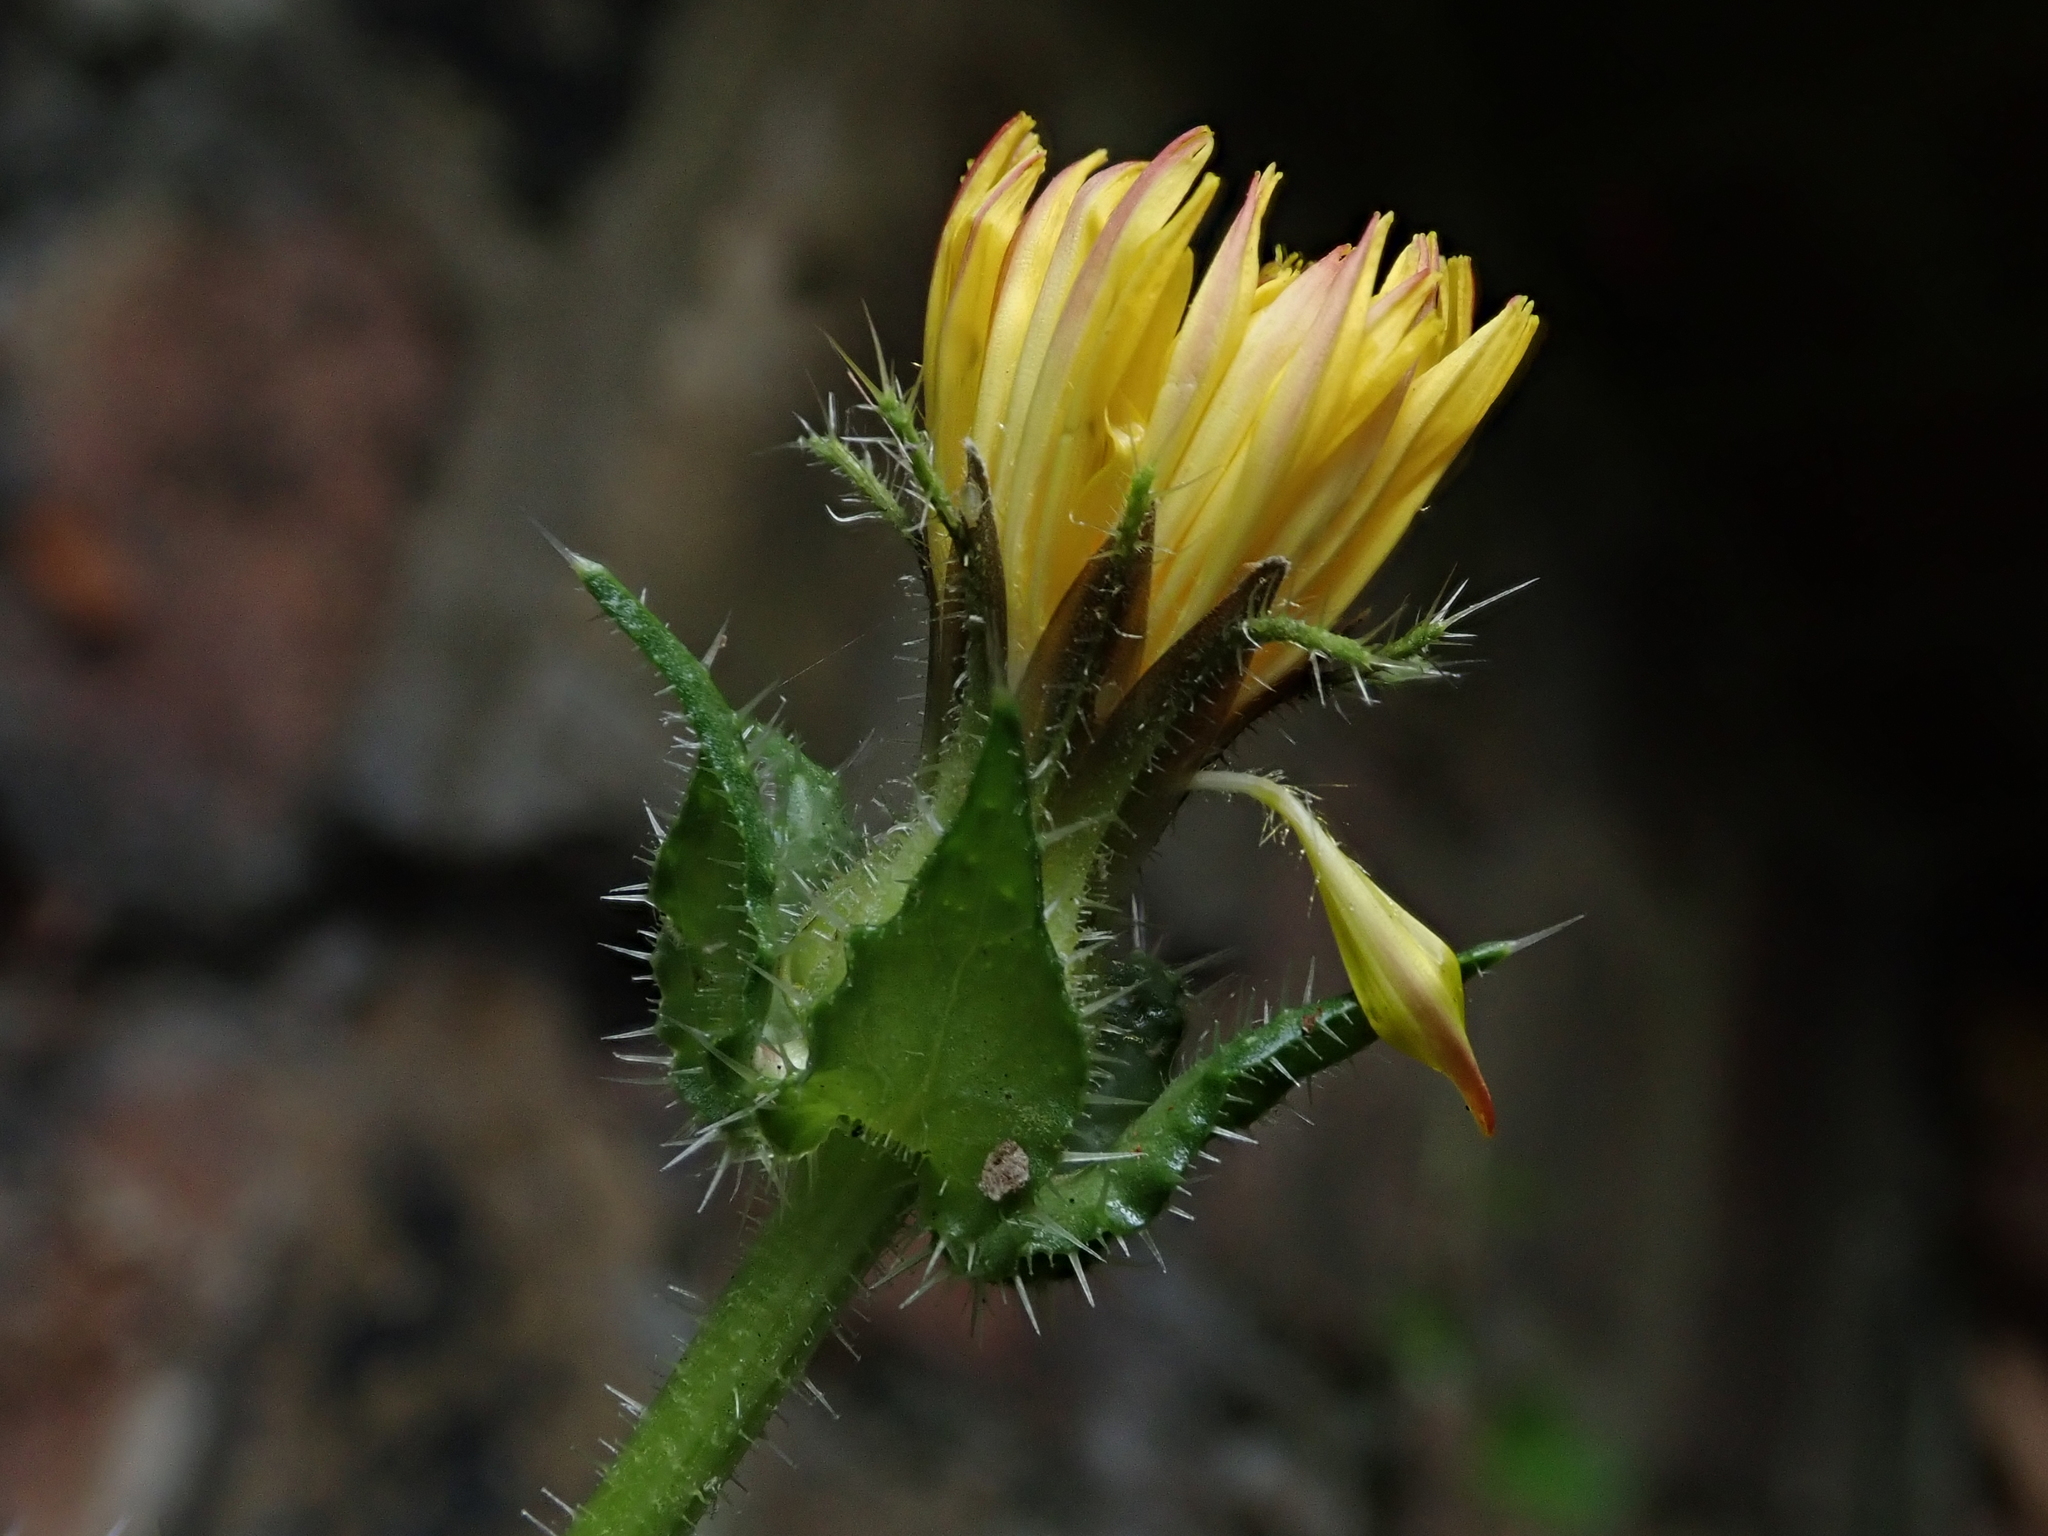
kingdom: Plantae
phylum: Tracheophyta
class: Magnoliopsida
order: Asterales
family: Asteraceae
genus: Helminthotheca
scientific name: Helminthotheca echioides
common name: Ox-tongue
